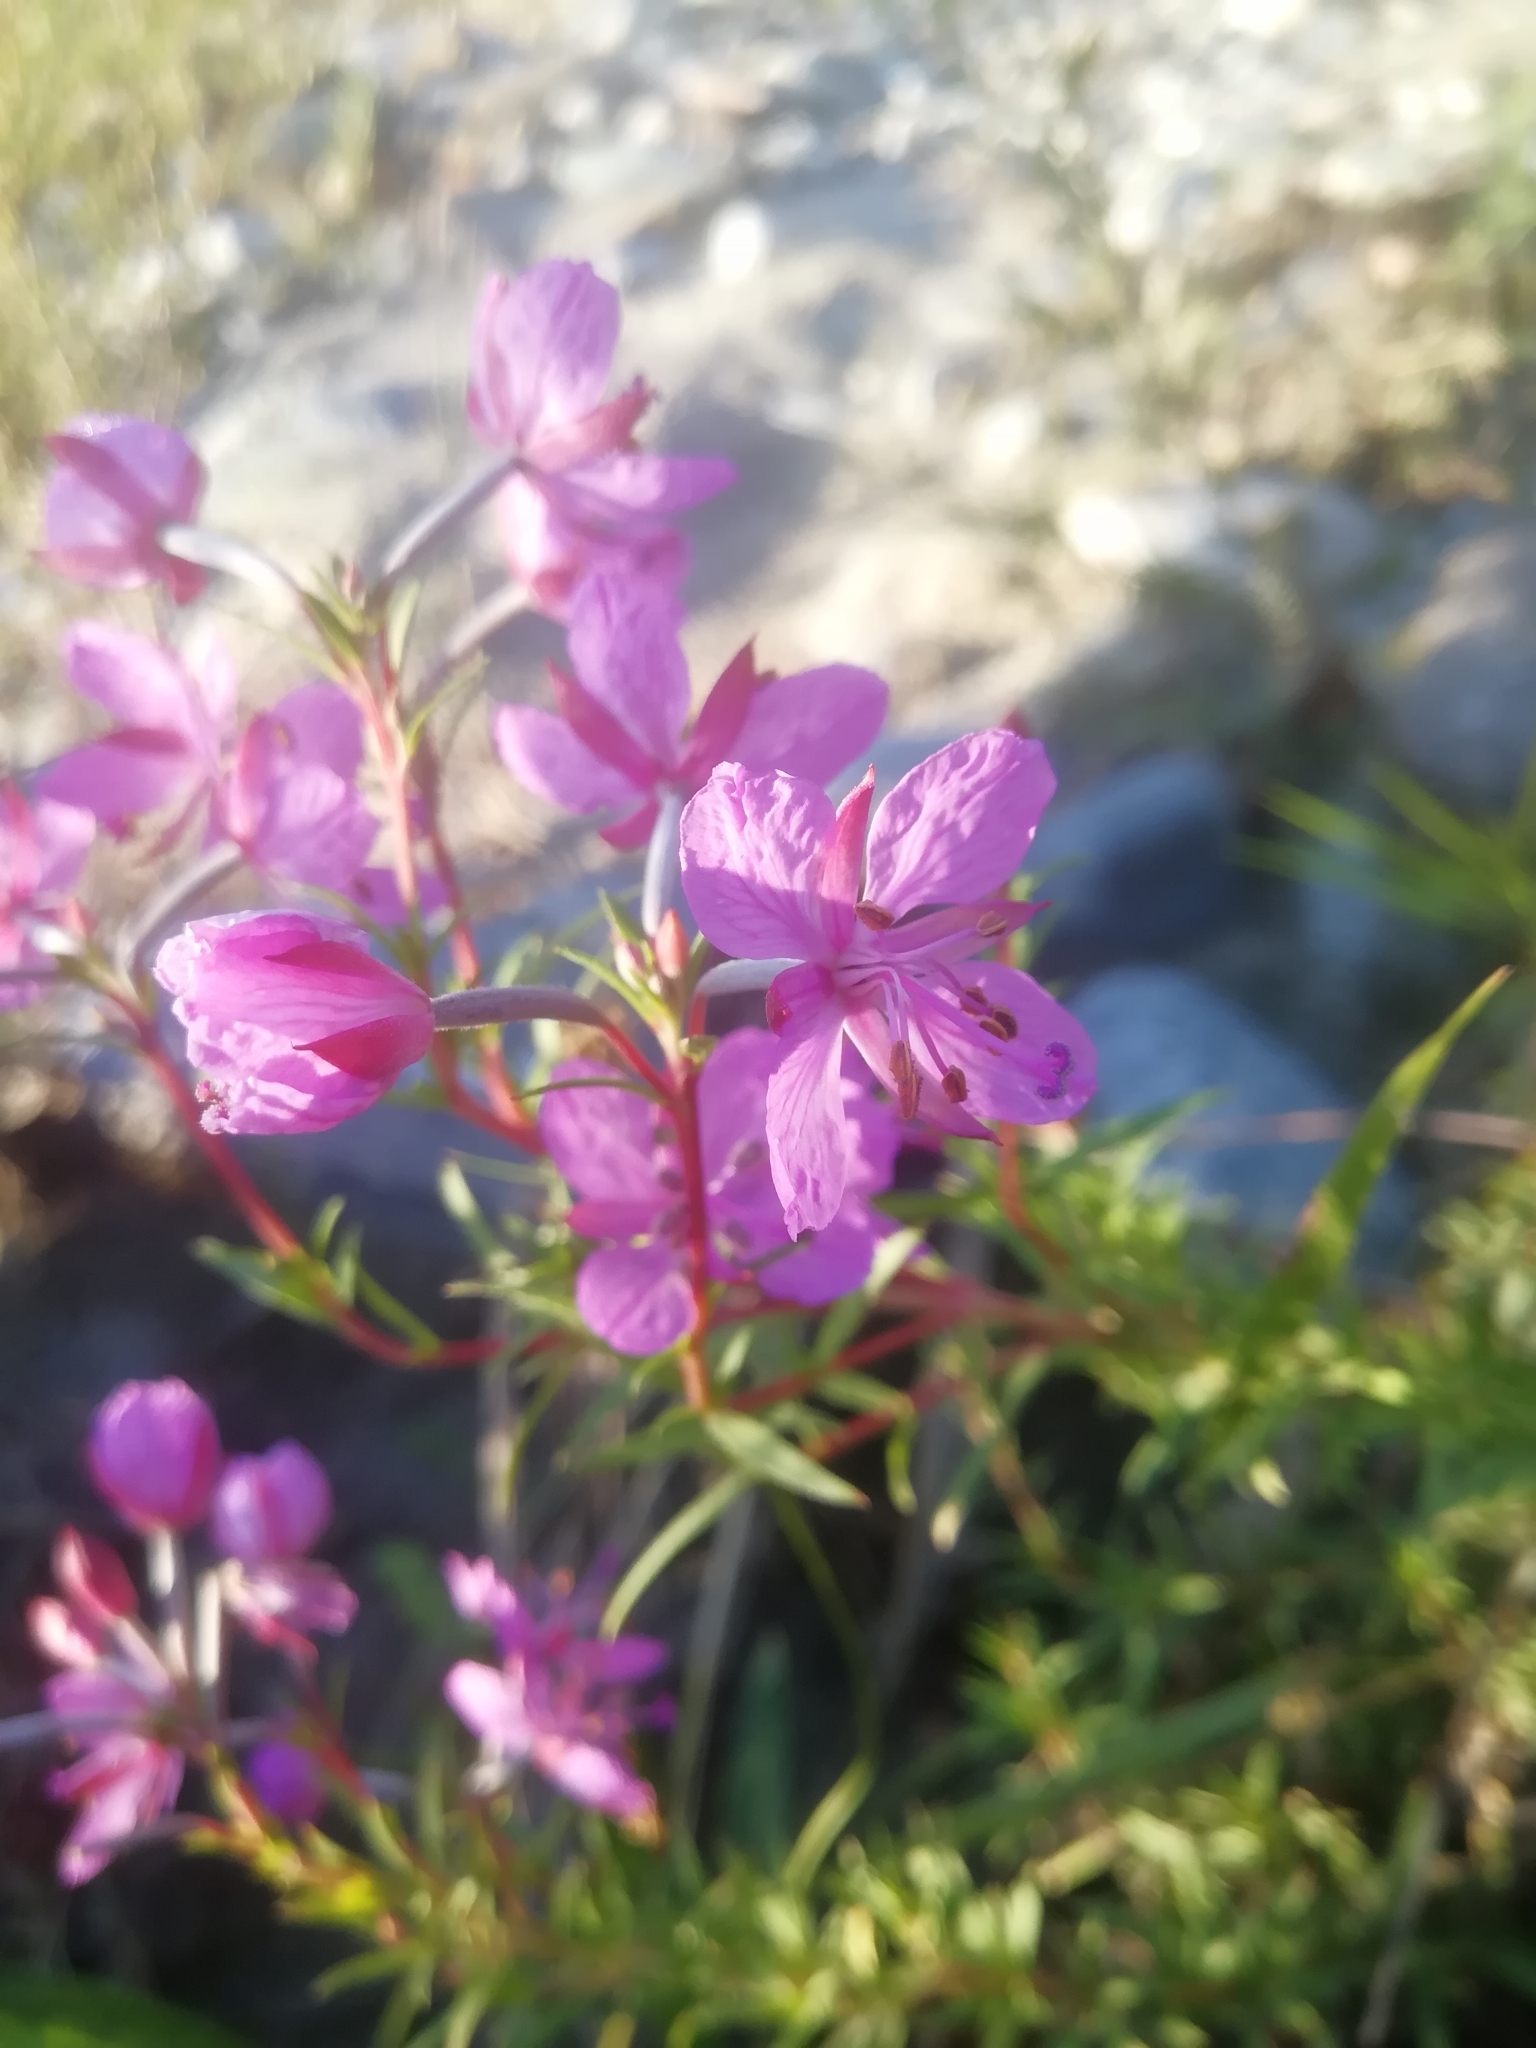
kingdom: Plantae
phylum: Tracheophyta
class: Magnoliopsida
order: Myrtales
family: Onagraceae
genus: Chamaenerion
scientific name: Chamaenerion colchicum
